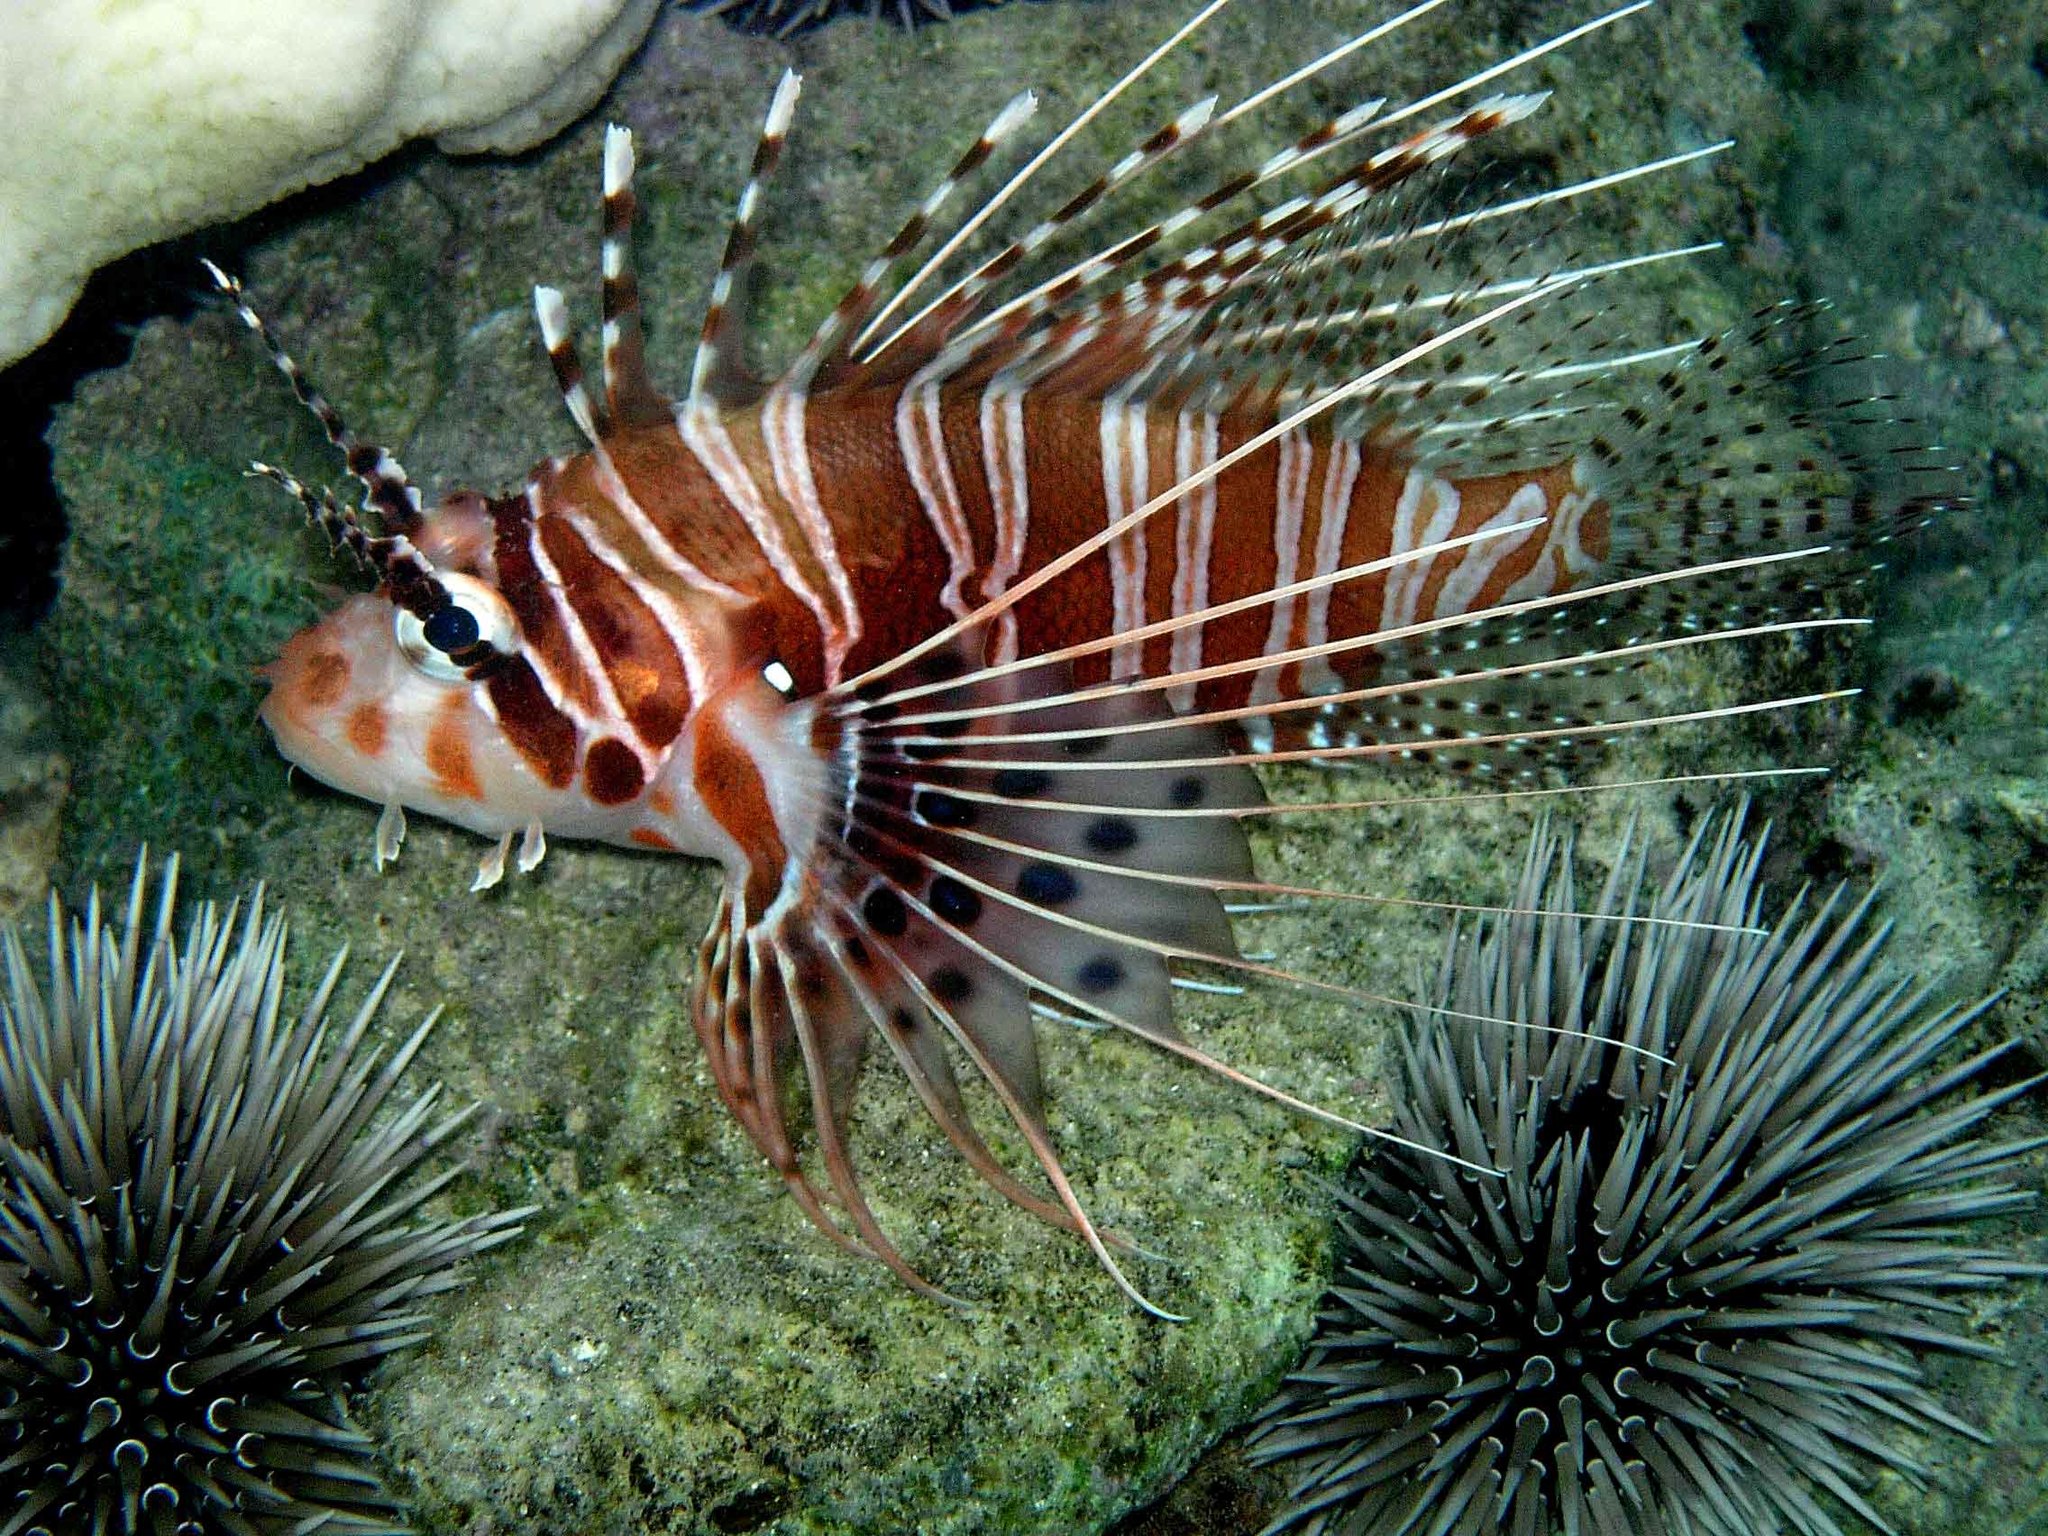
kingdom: Animalia
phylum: Chordata
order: Scorpaeniformes
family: Scorpaenidae
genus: Pterois
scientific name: Pterois antennata
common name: Spotfin lionfish
